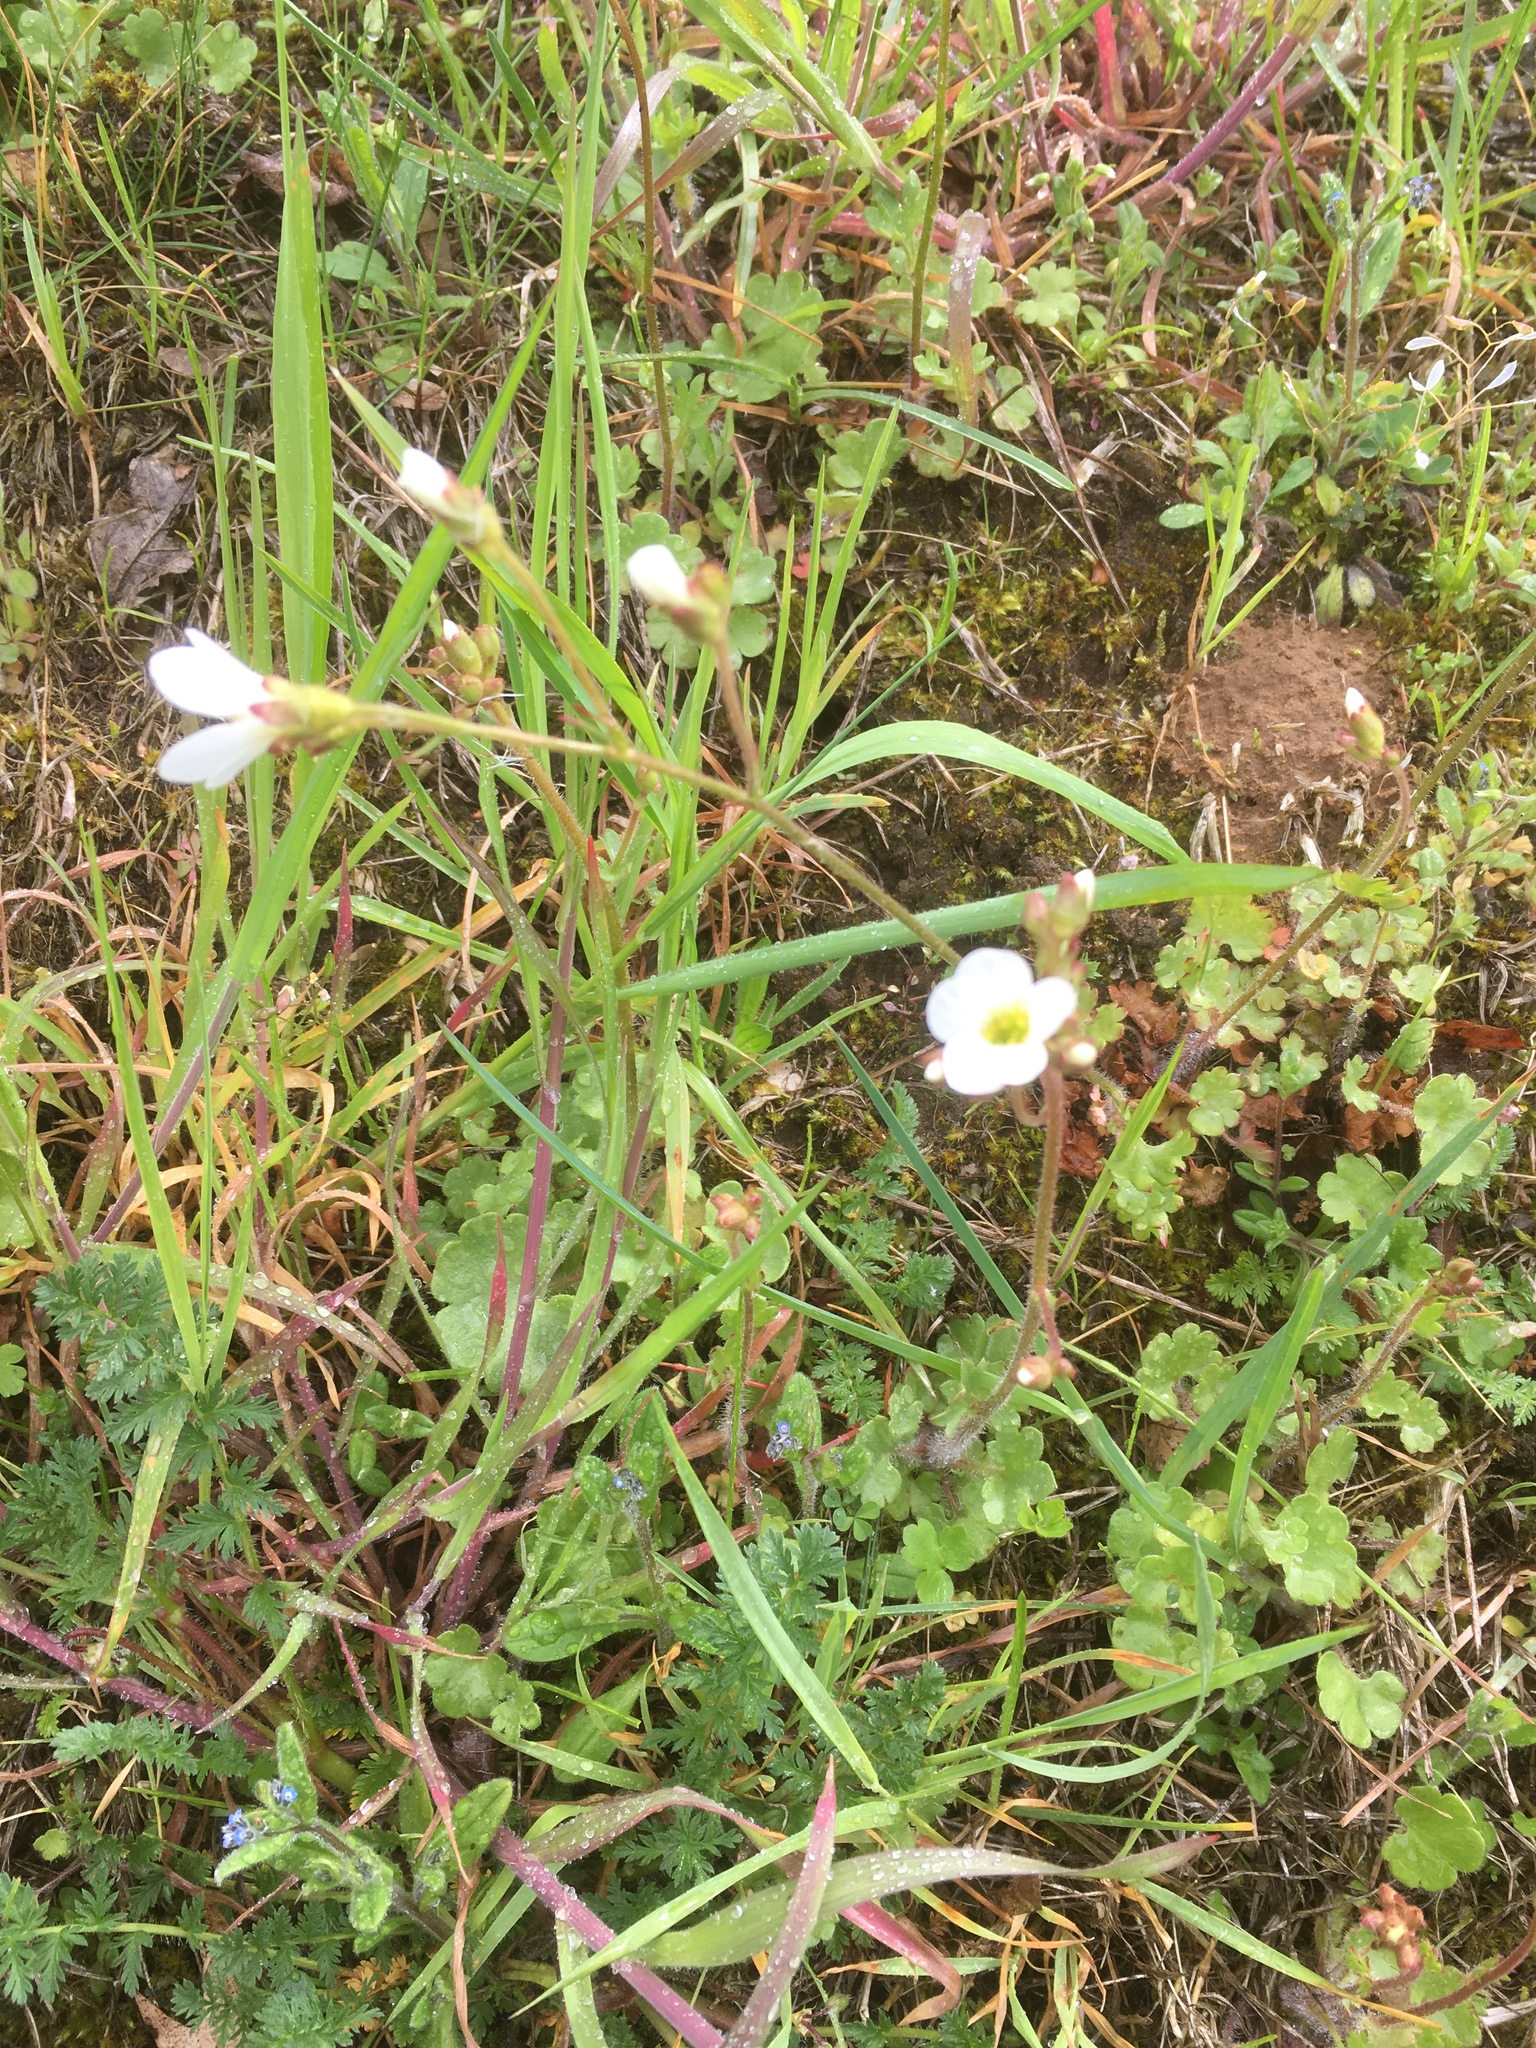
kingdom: Plantae
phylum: Tracheophyta
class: Magnoliopsida
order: Saxifragales
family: Saxifragaceae
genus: Saxifraga
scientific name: Saxifraga granulata
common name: Meadow saxifrage
